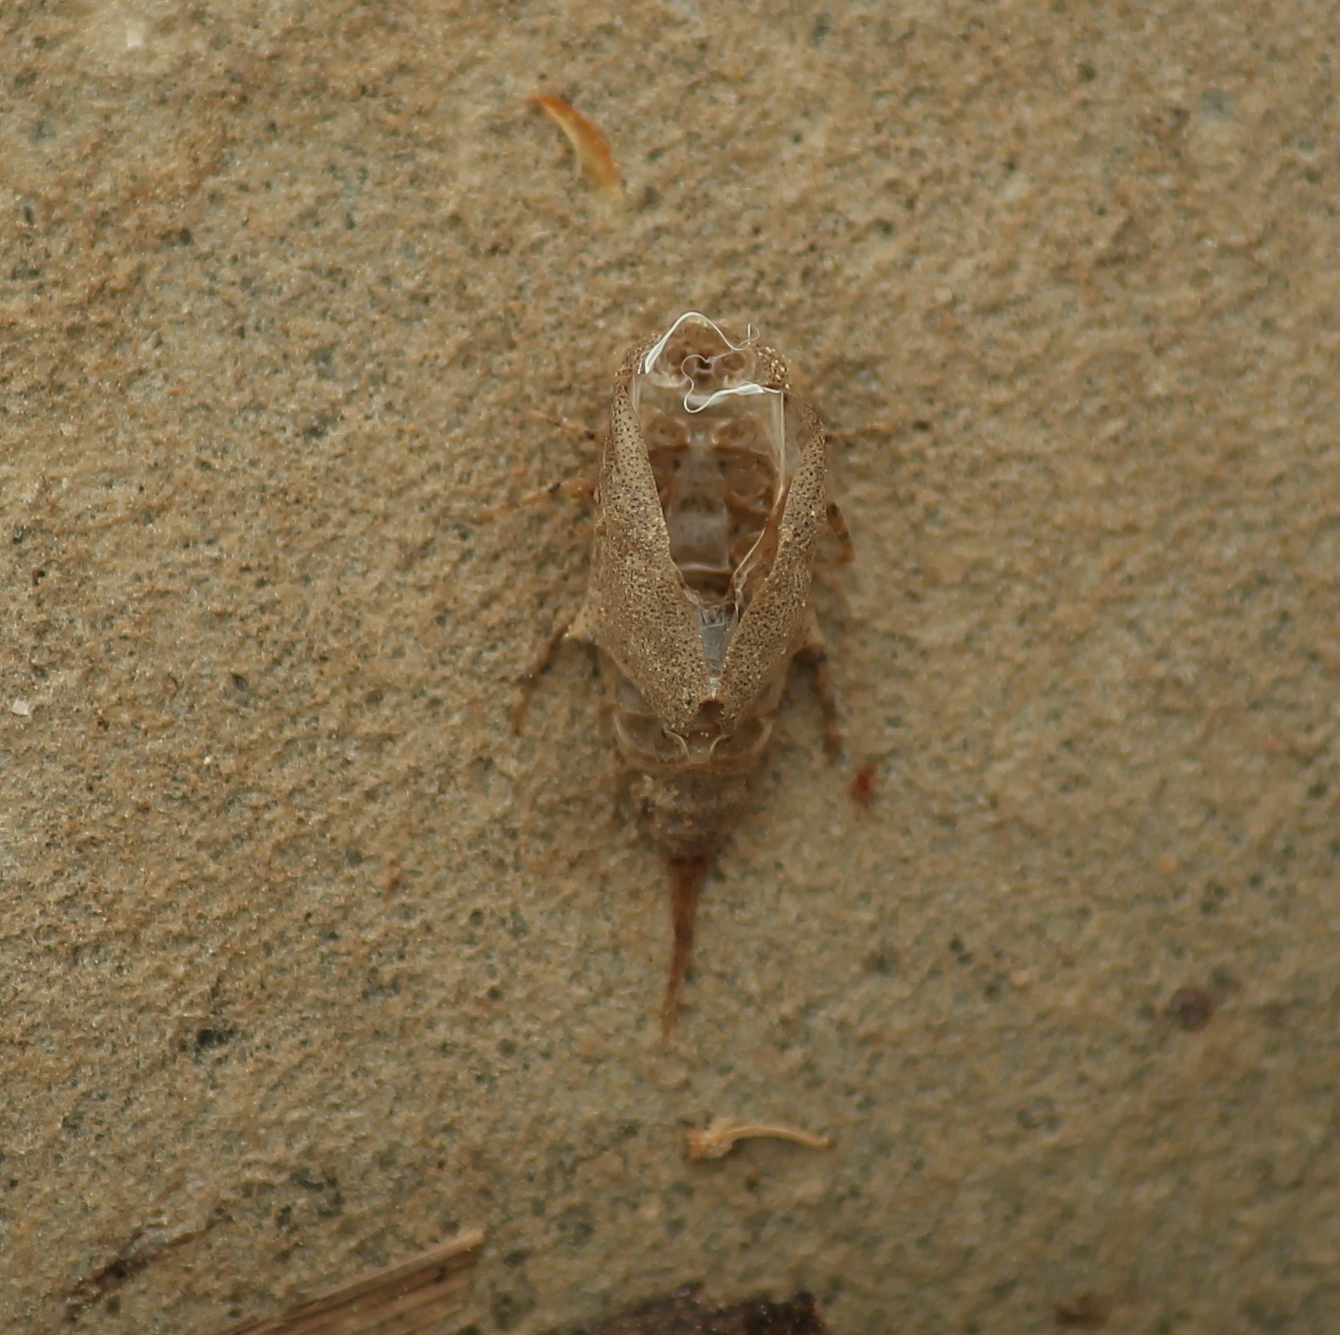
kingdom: Animalia
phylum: Arthropoda
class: Insecta
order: Ephemeroptera
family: Baetiscidae
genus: Baetisca
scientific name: Baetisca lacustris
